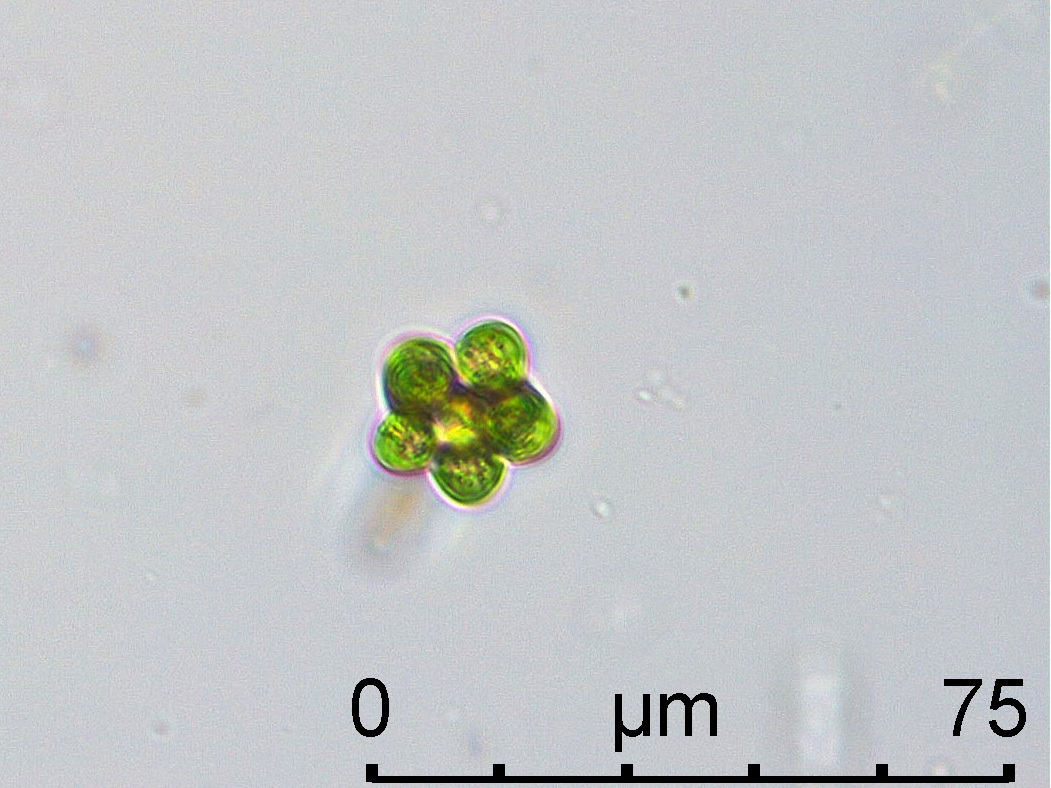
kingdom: Plantae
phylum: Chlorophyta
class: Chlorophyceae
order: Sphaeropleales
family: Scenedesmaceae
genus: Coelastrum
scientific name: Coelastrum astroideum
